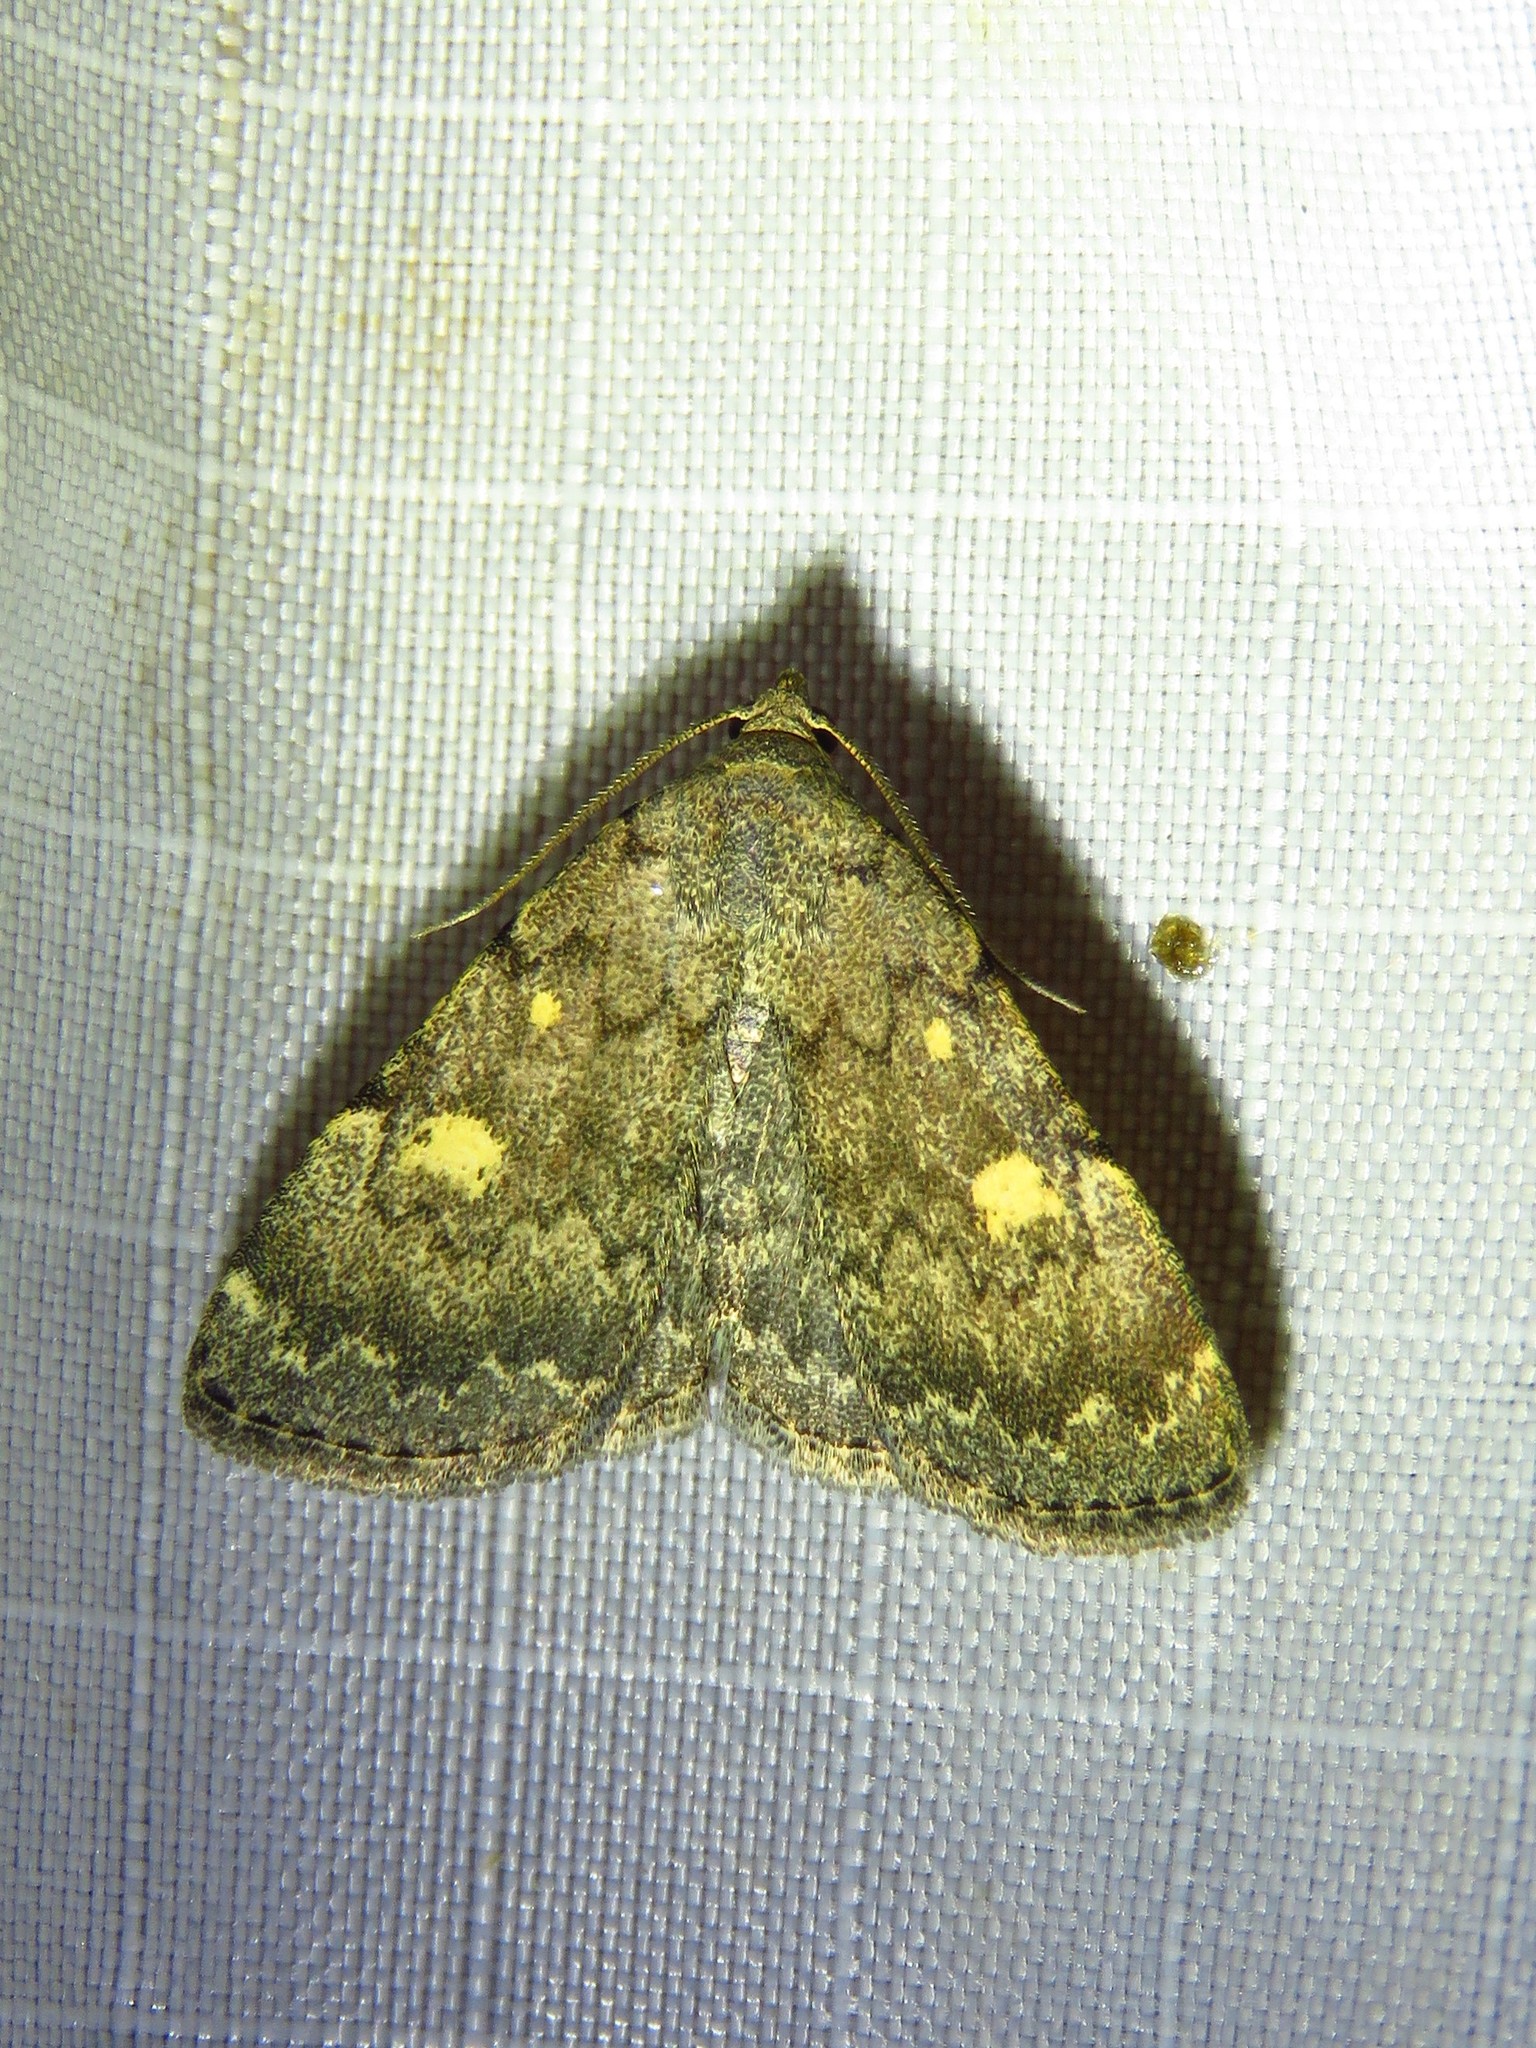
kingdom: Animalia
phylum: Arthropoda
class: Insecta
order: Lepidoptera
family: Erebidae
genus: Idia
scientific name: Idia aemula
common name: Common idia moth
